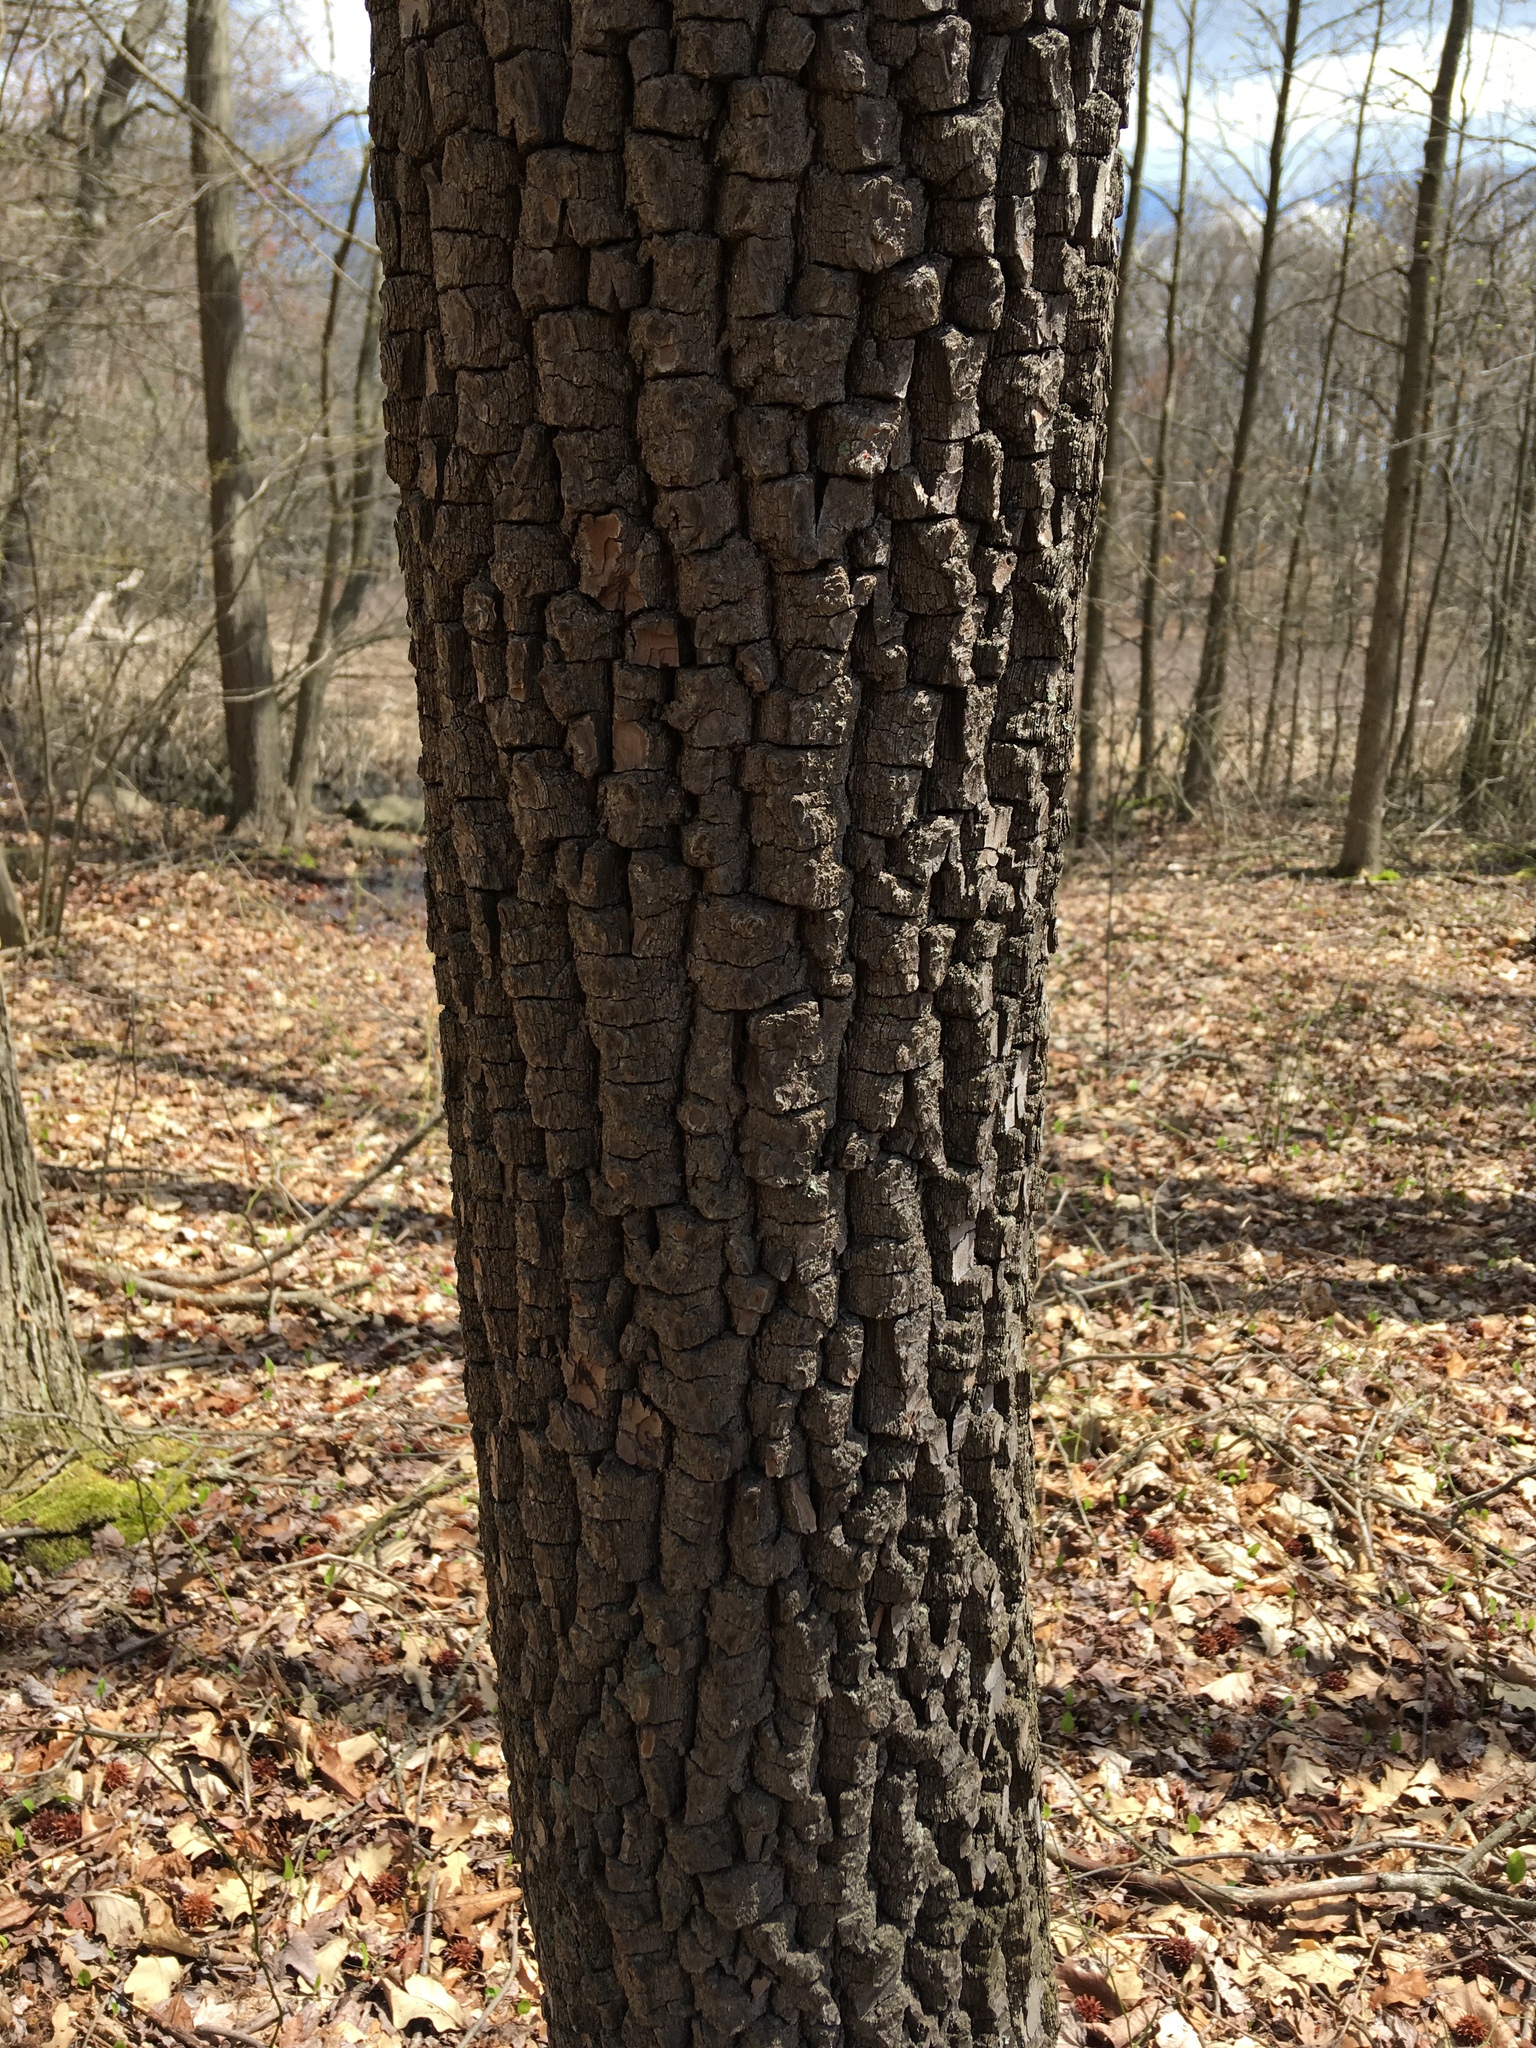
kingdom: Plantae
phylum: Tracheophyta
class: Magnoliopsida
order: Ericales
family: Ebenaceae
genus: Diospyros
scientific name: Diospyros virginiana
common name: Persimmon
